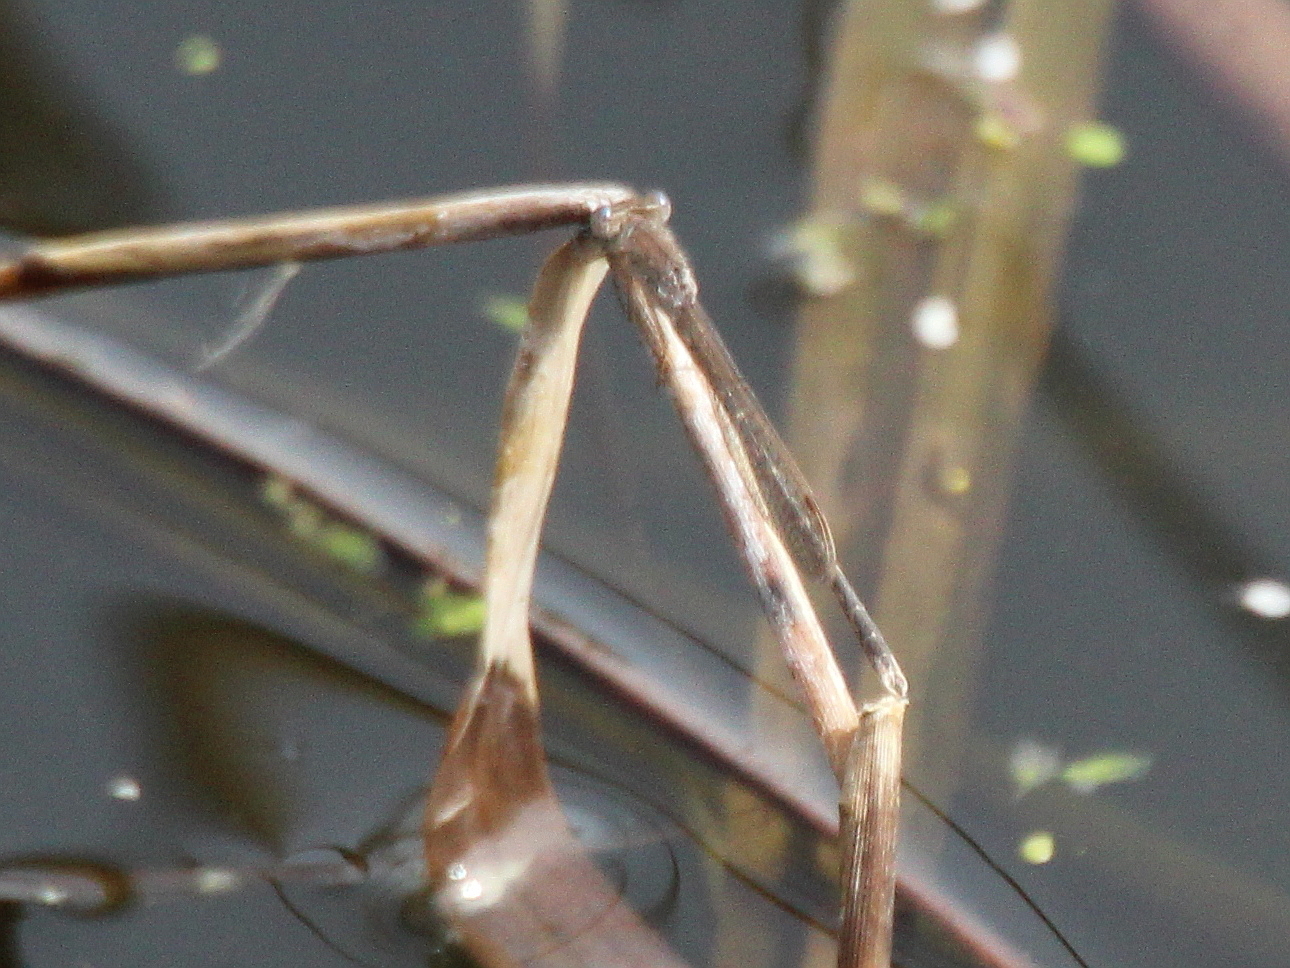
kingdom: Animalia
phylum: Arthropoda
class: Insecta
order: Odonata
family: Lestidae
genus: Sympecma
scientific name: Sympecma paedisca
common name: Siberian winter damsel
